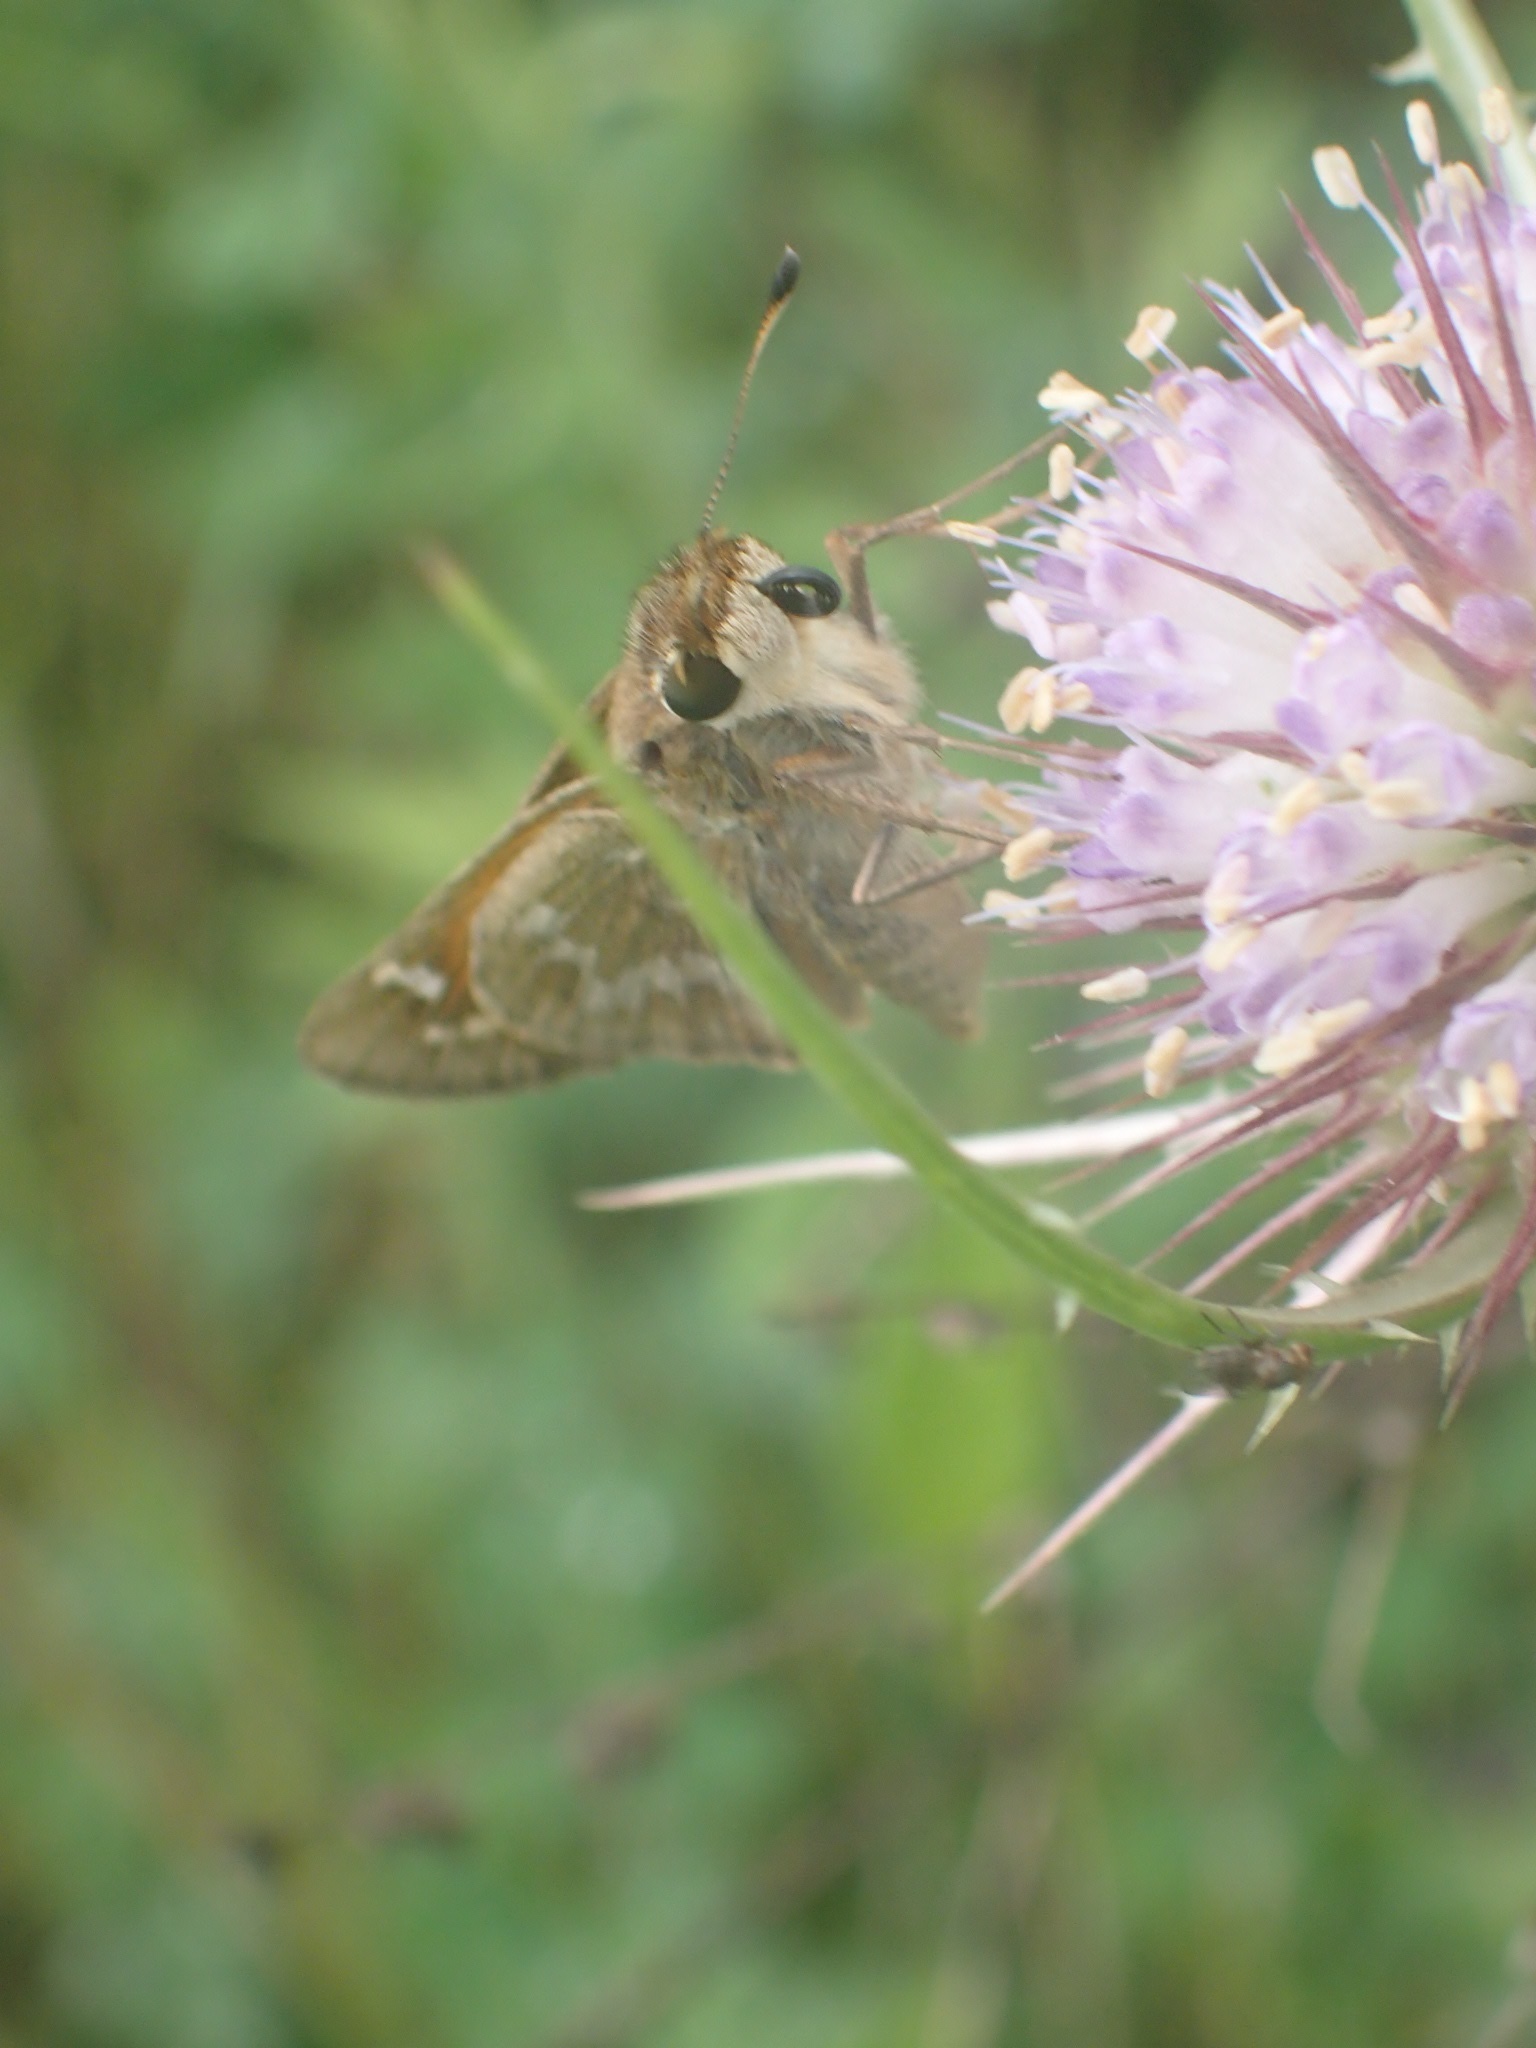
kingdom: Animalia
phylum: Arthropoda
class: Insecta
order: Lepidoptera
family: Hesperiidae
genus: Atalopedes
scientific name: Atalopedes
